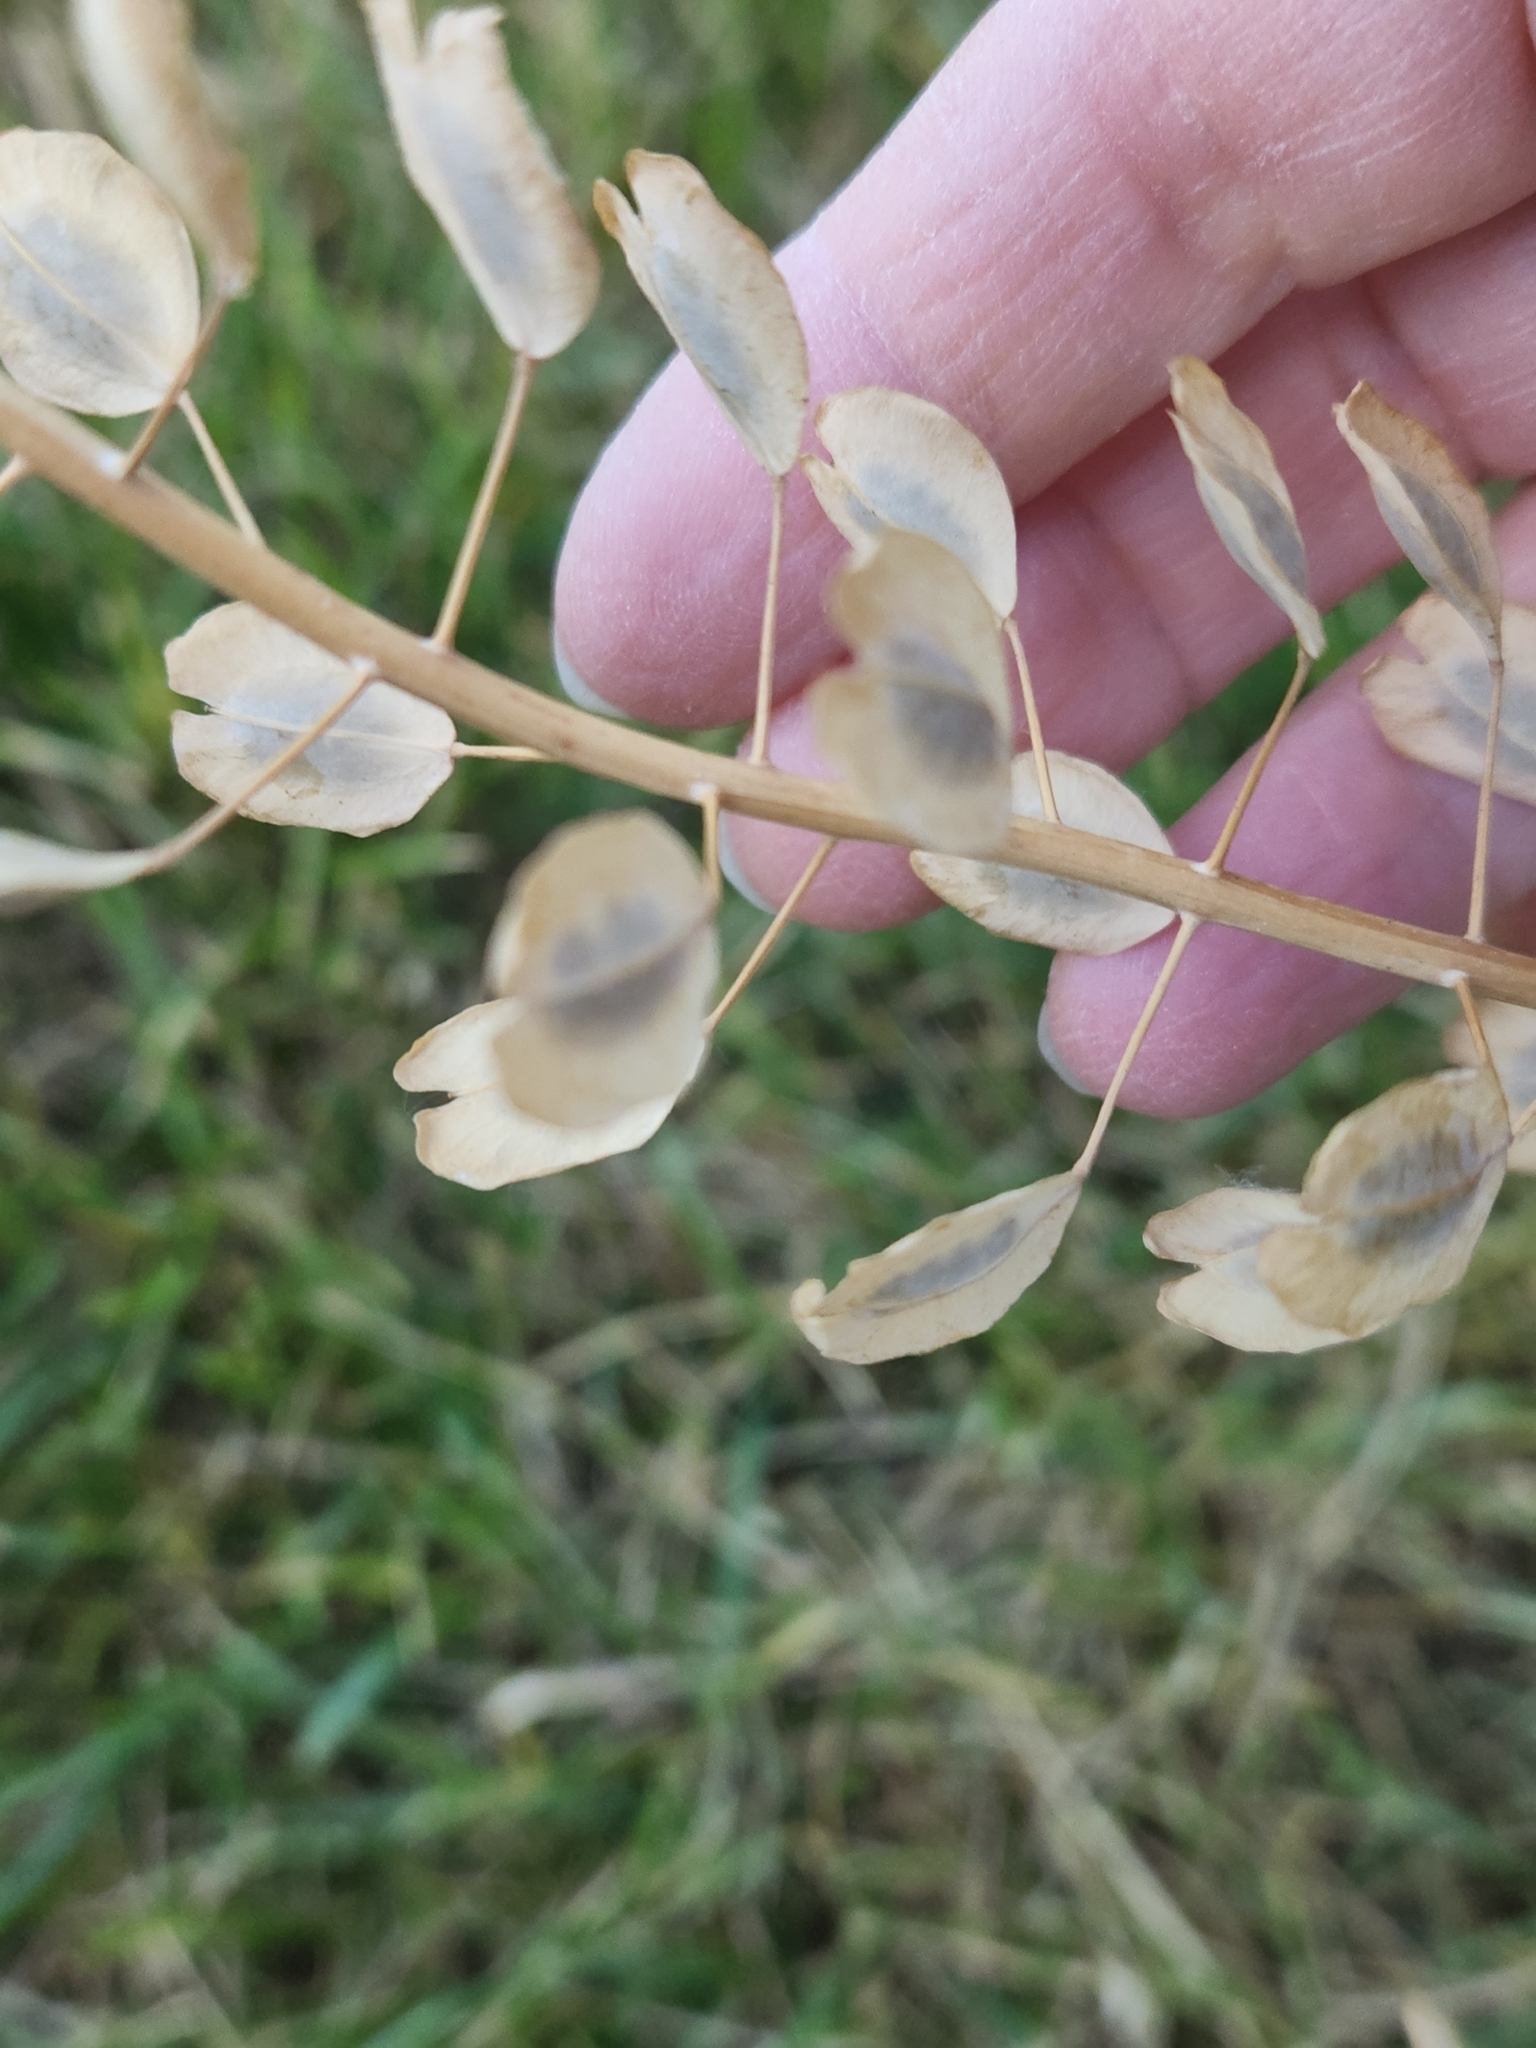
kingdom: Plantae
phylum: Tracheophyta
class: Magnoliopsida
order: Brassicales
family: Brassicaceae
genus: Thlaspi
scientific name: Thlaspi arvense
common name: Field pennycress
